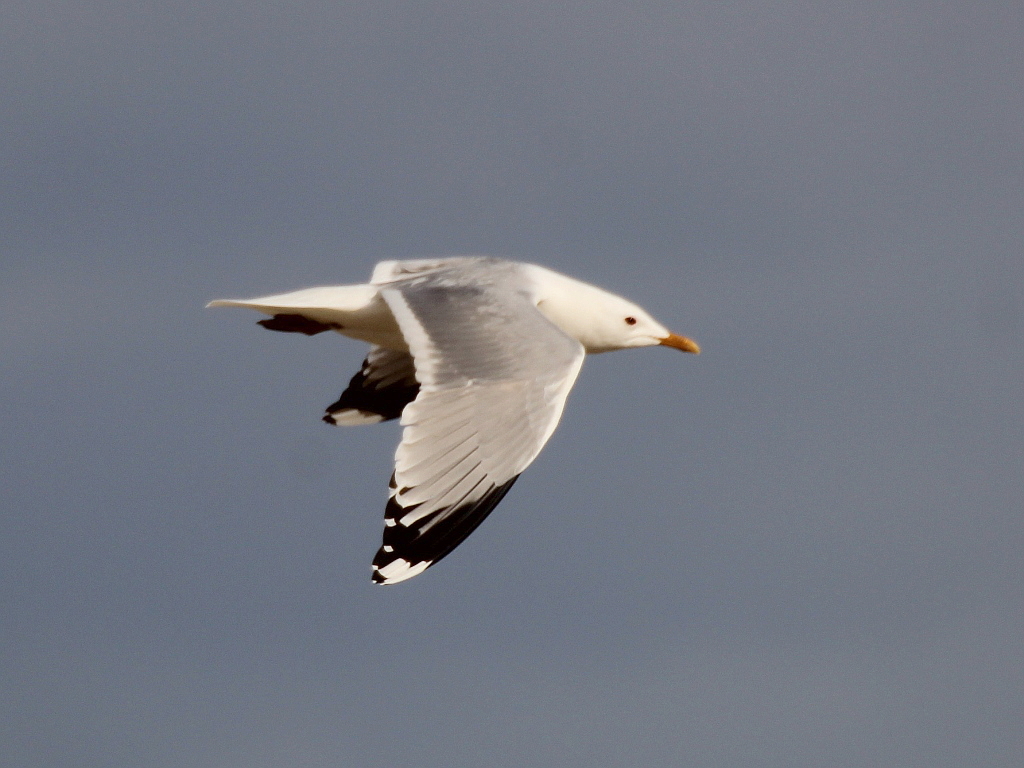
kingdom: Animalia
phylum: Chordata
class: Aves
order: Charadriiformes
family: Laridae
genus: Larus
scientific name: Larus canus
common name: Mew gull
